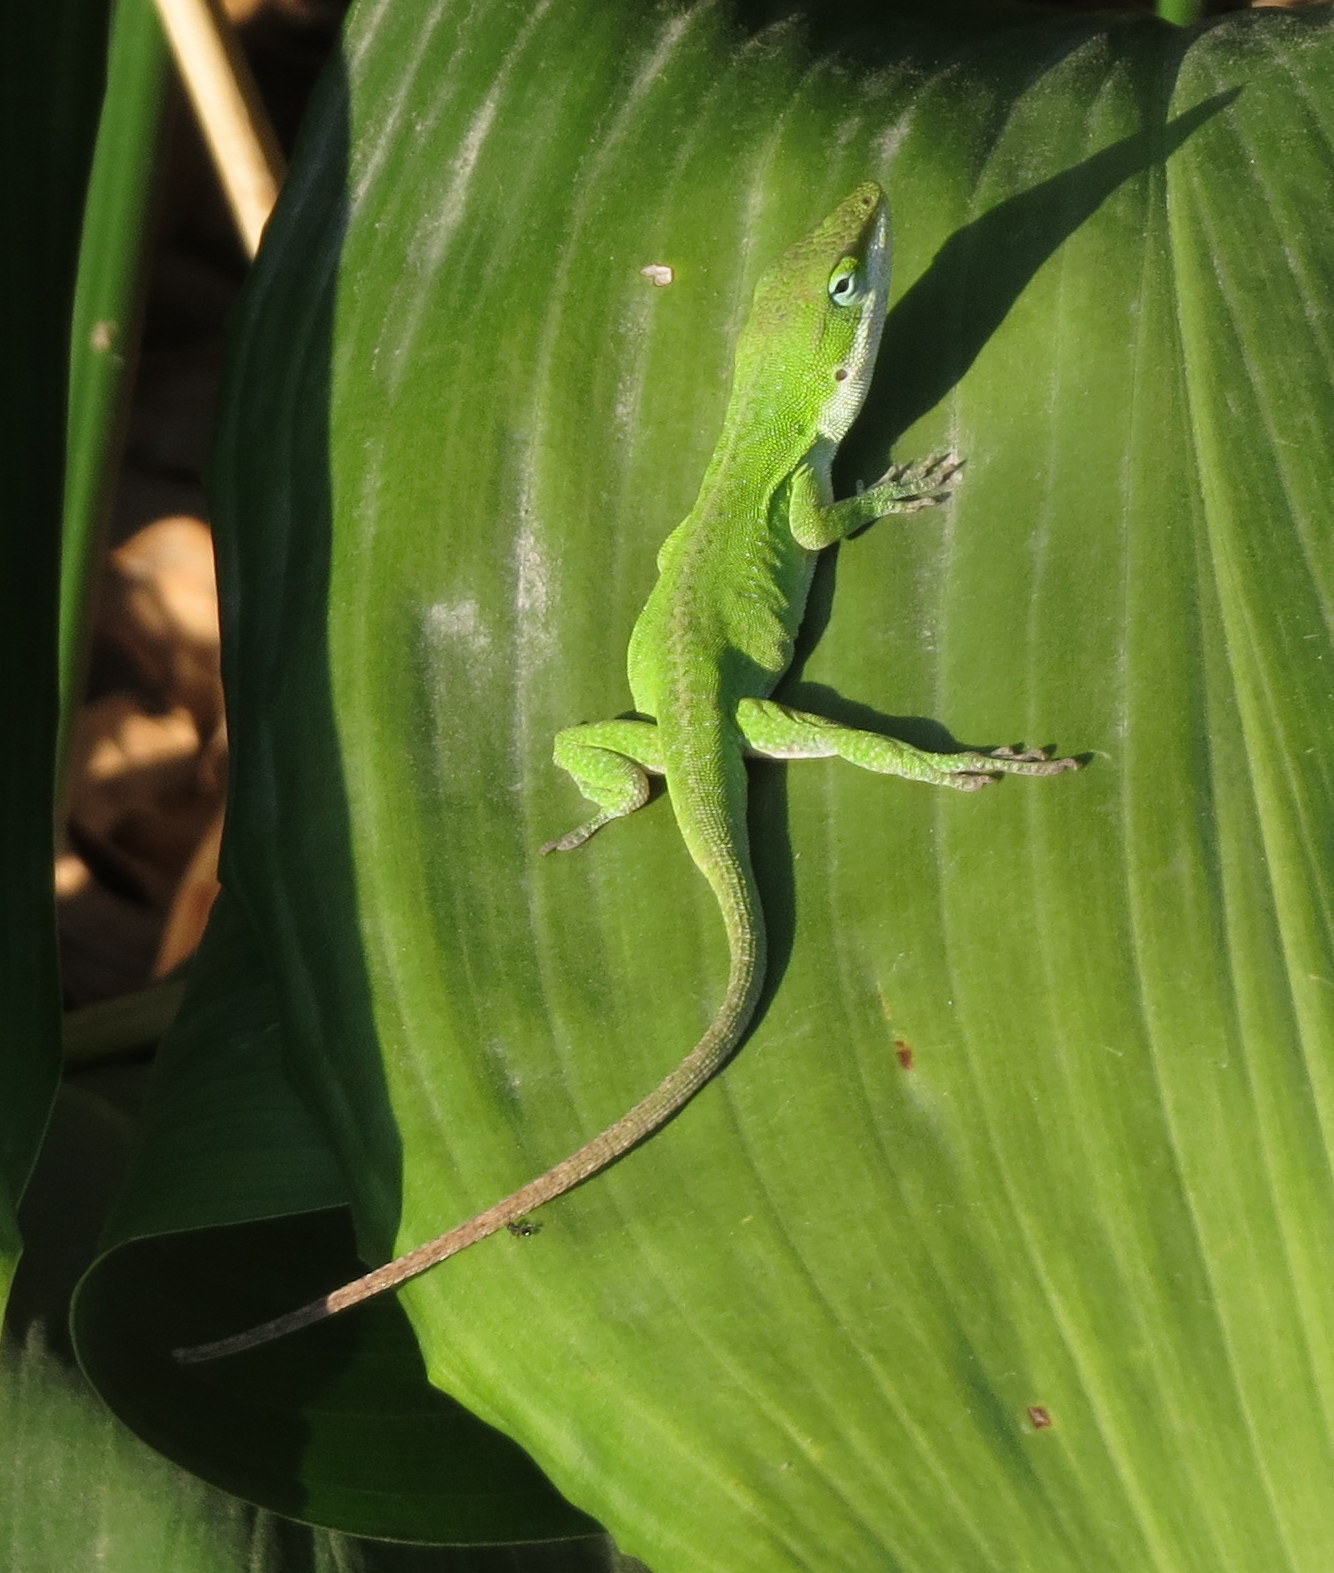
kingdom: Animalia
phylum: Chordata
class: Squamata
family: Dactyloidae
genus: Anolis
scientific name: Anolis carolinensis
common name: Green anole
